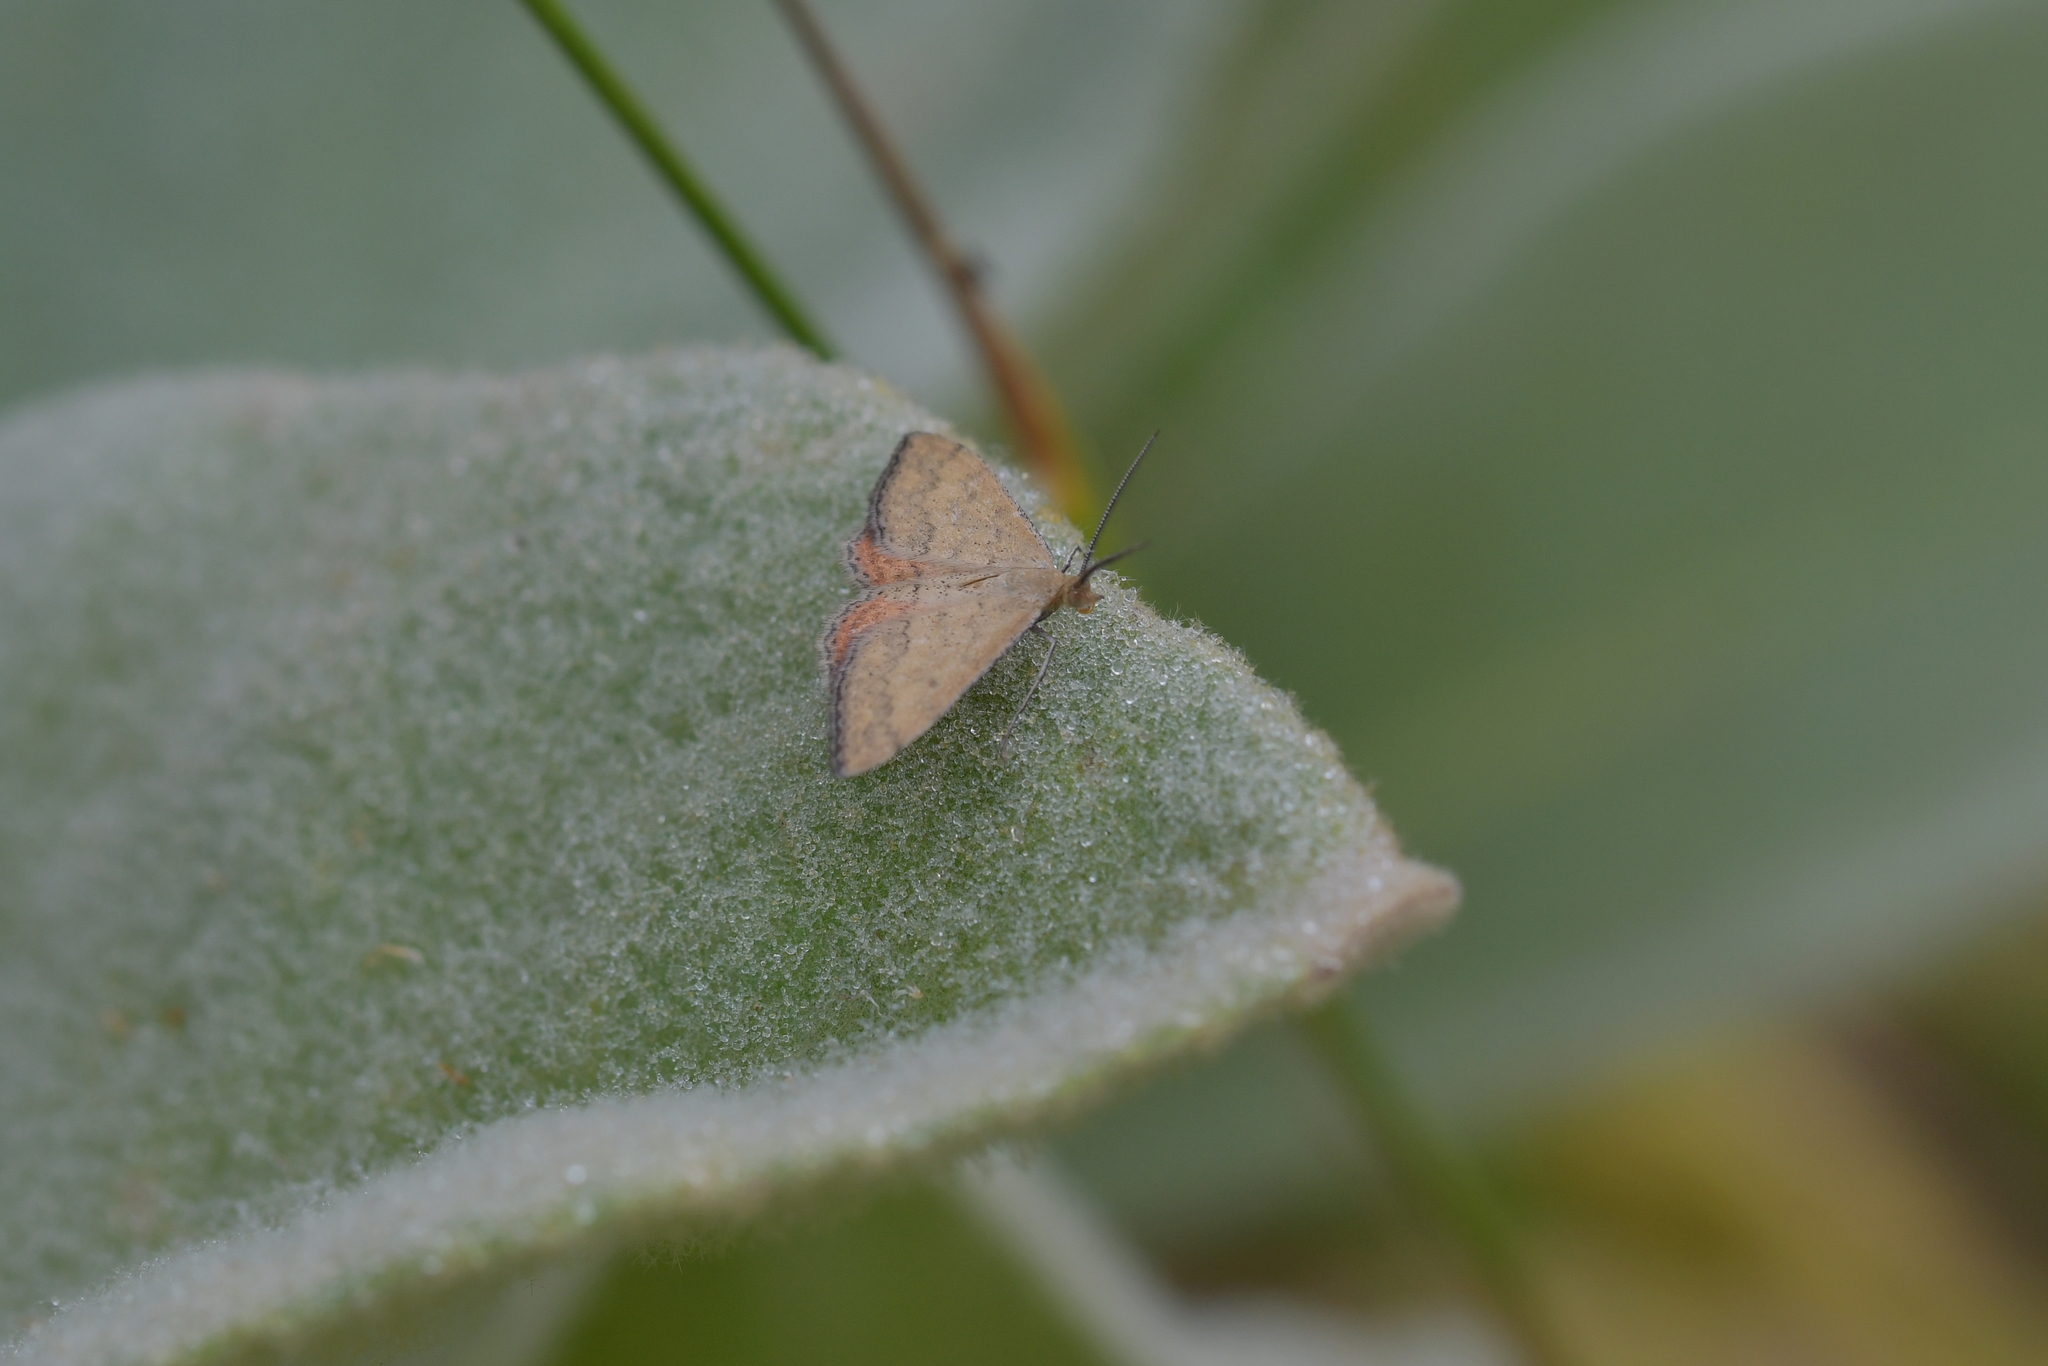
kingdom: Animalia
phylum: Arthropoda
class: Insecta
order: Lepidoptera
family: Geometridae
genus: Scopula
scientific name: Scopula rubraria
